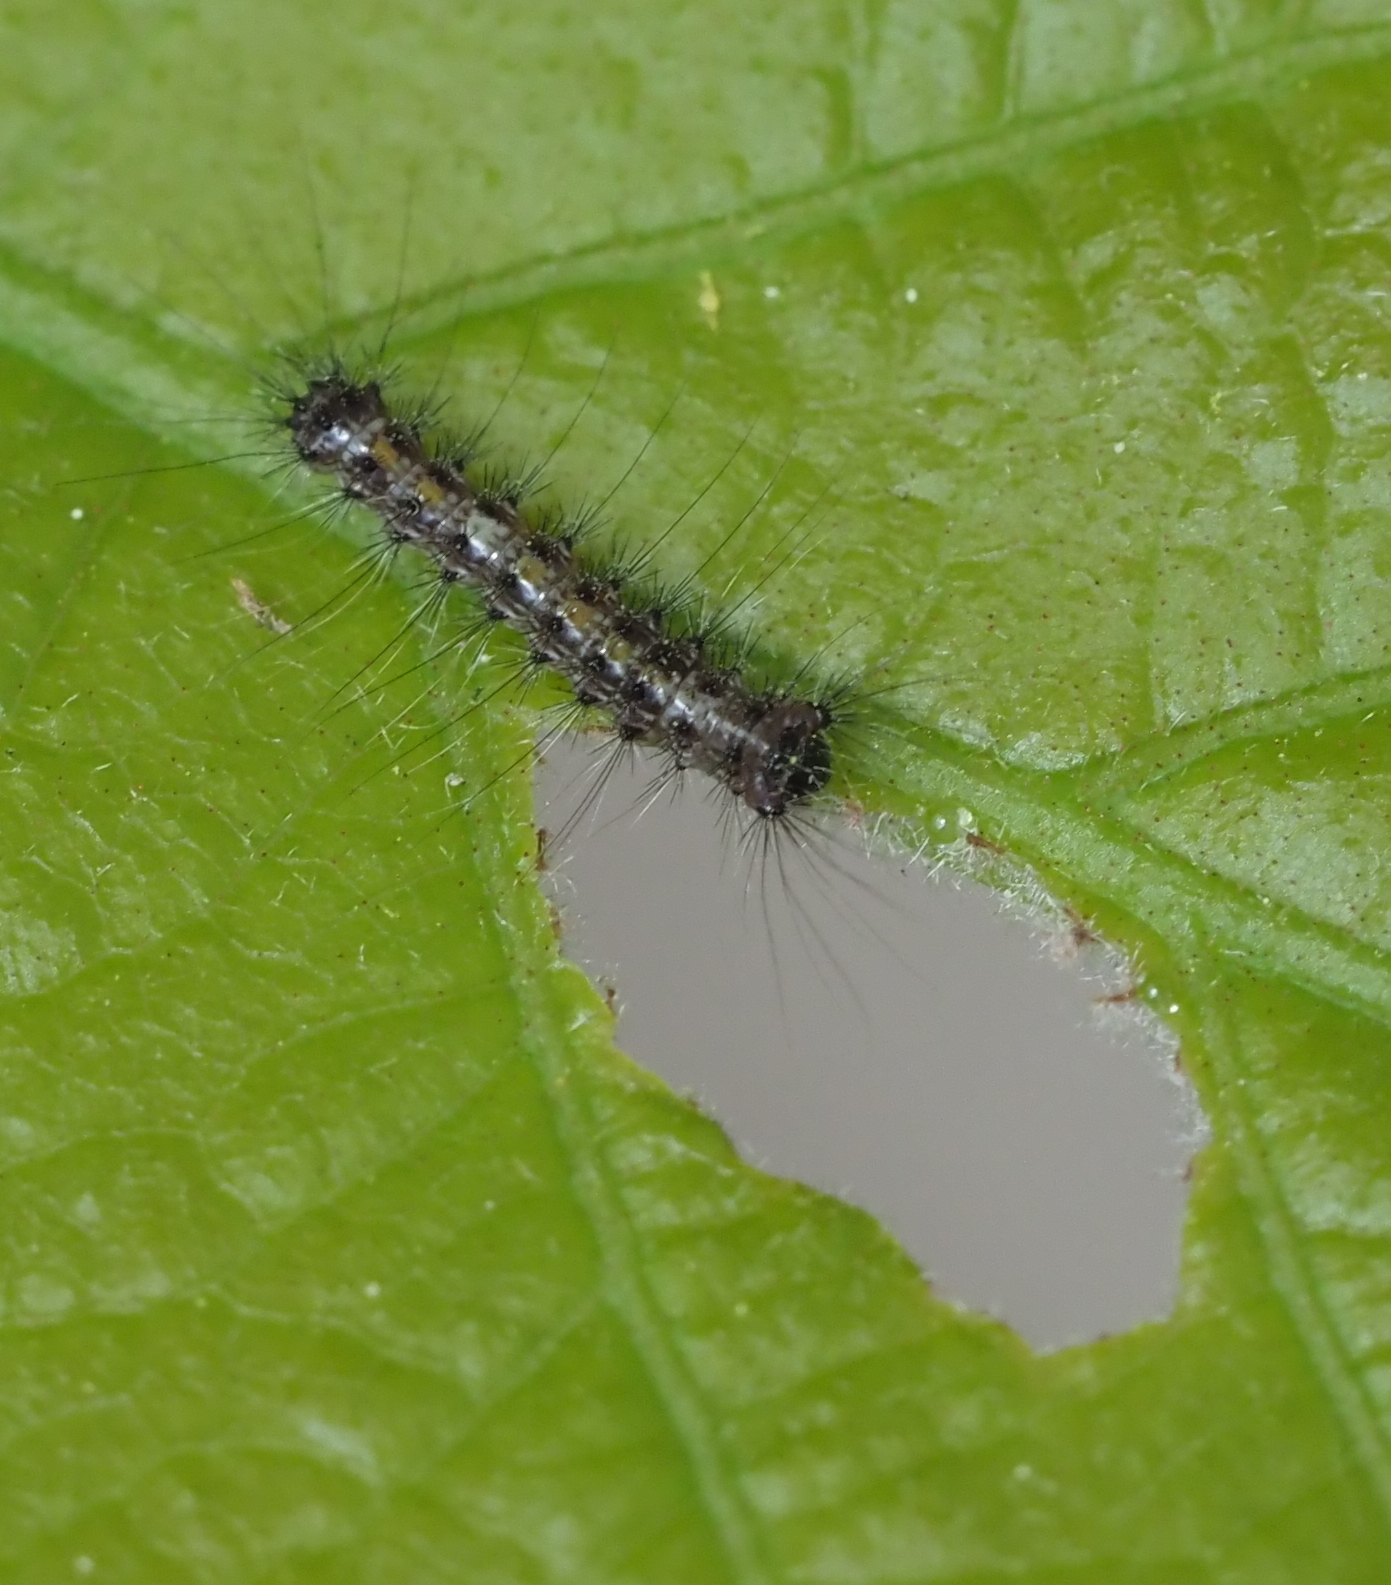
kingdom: Animalia
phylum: Arthropoda
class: Insecta
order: Lepidoptera
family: Erebidae
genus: Lymantria
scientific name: Lymantria dispar
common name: Gypsy moth
